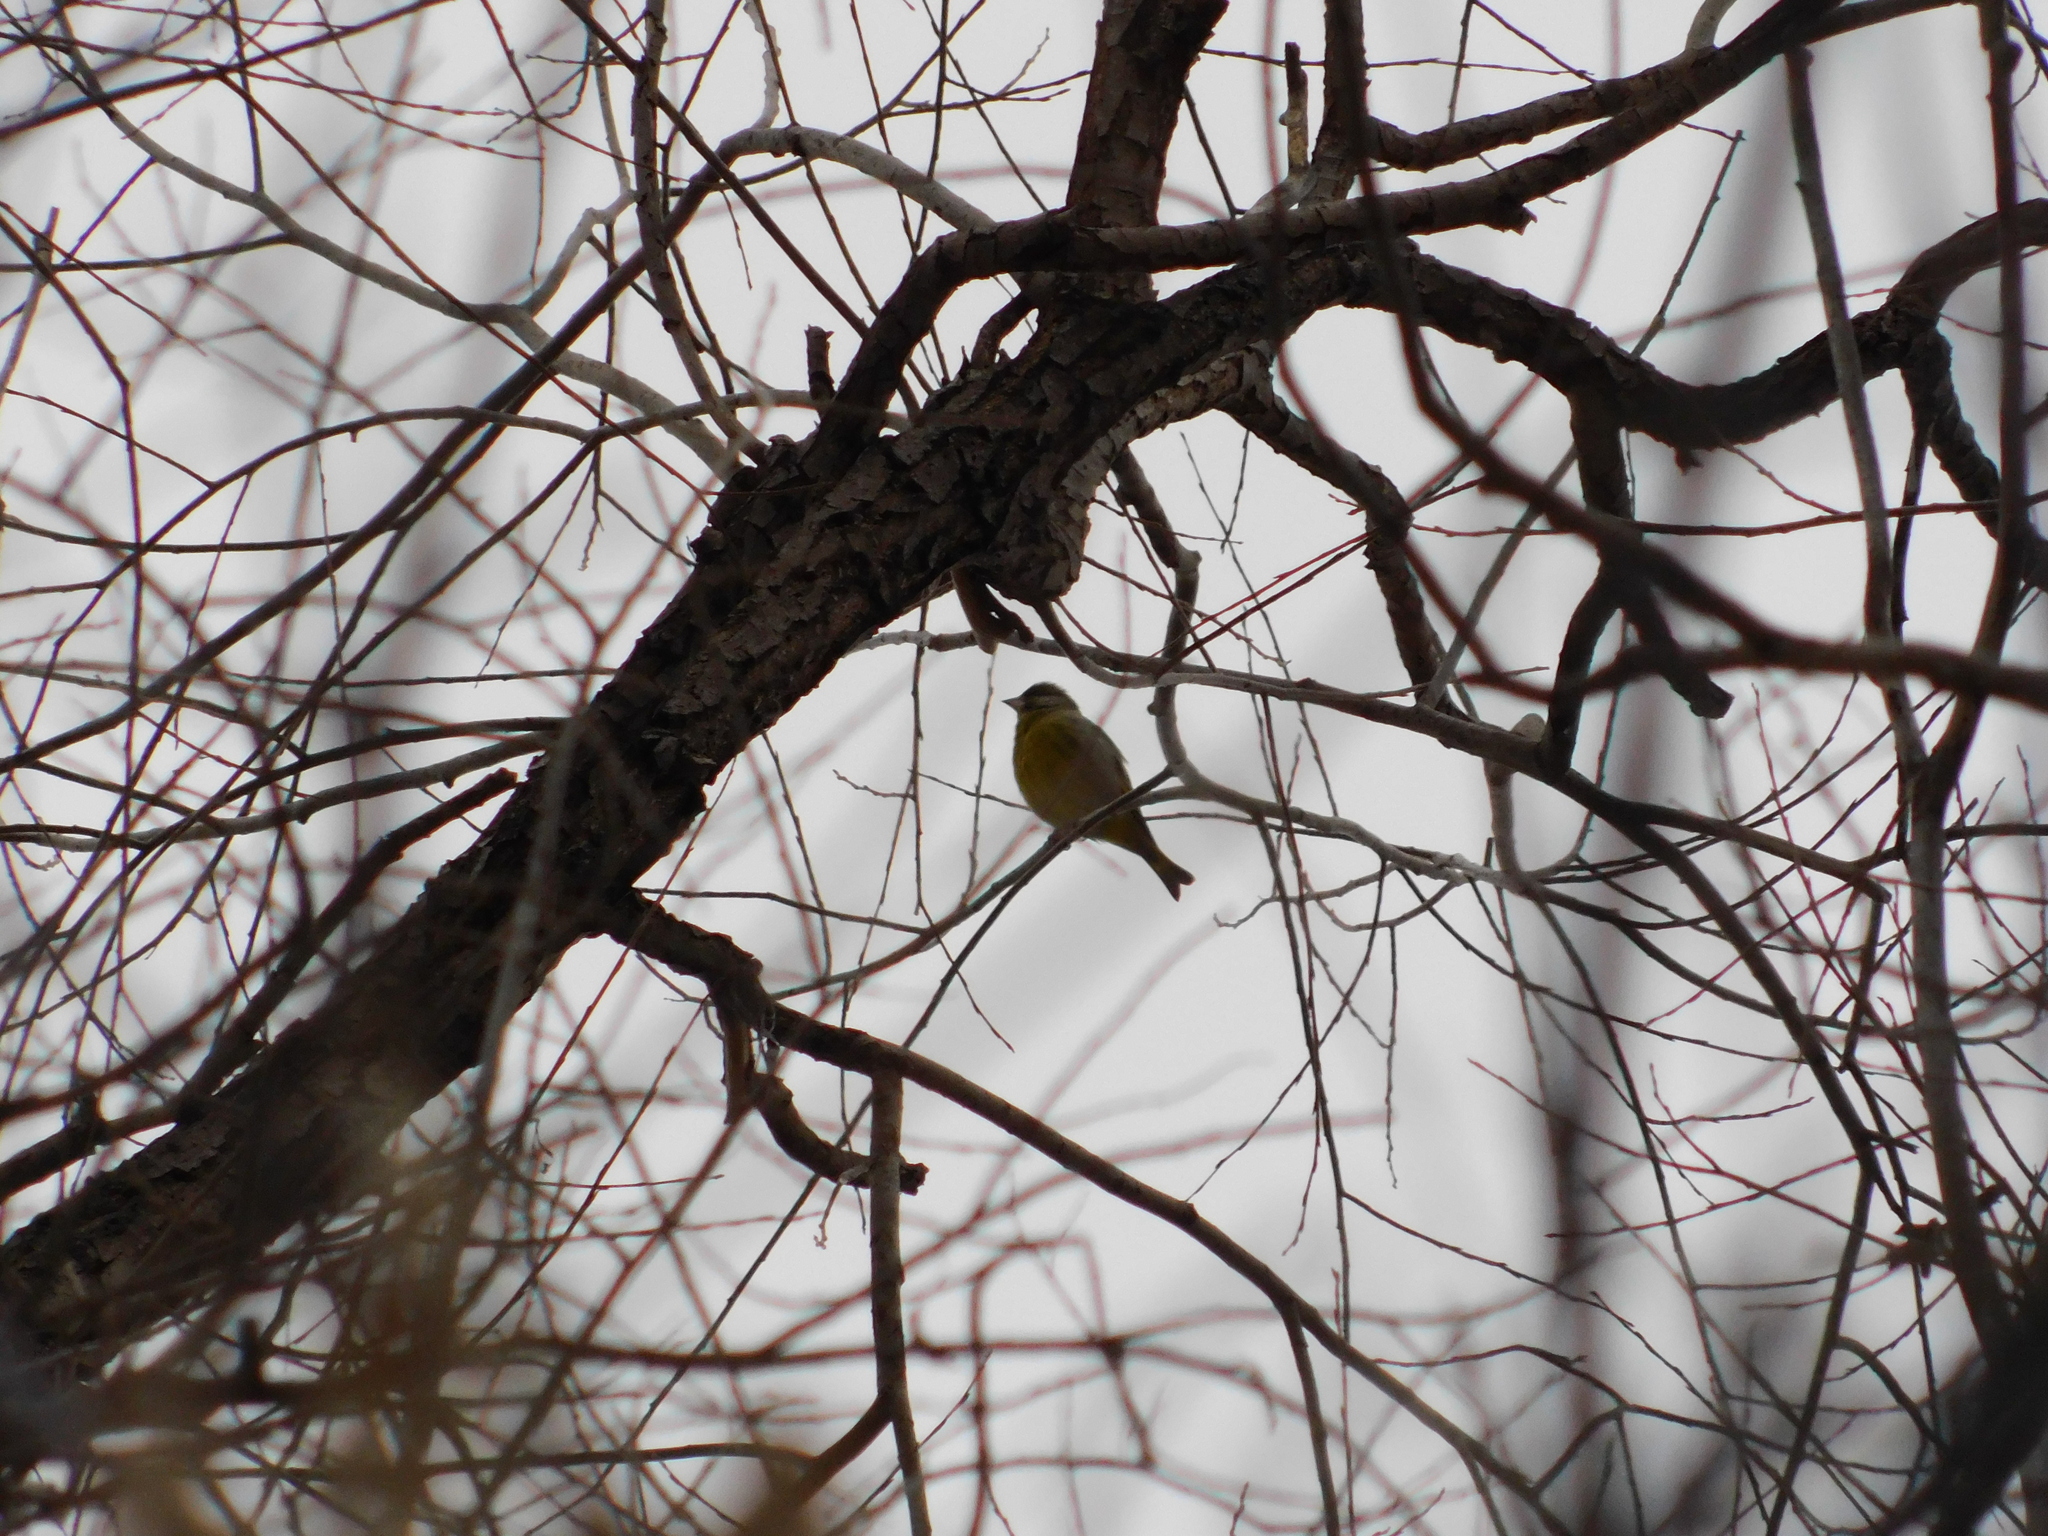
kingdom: Plantae
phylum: Tracheophyta
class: Liliopsida
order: Poales
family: Poaceae
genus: Chloris
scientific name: Chloris chloris
